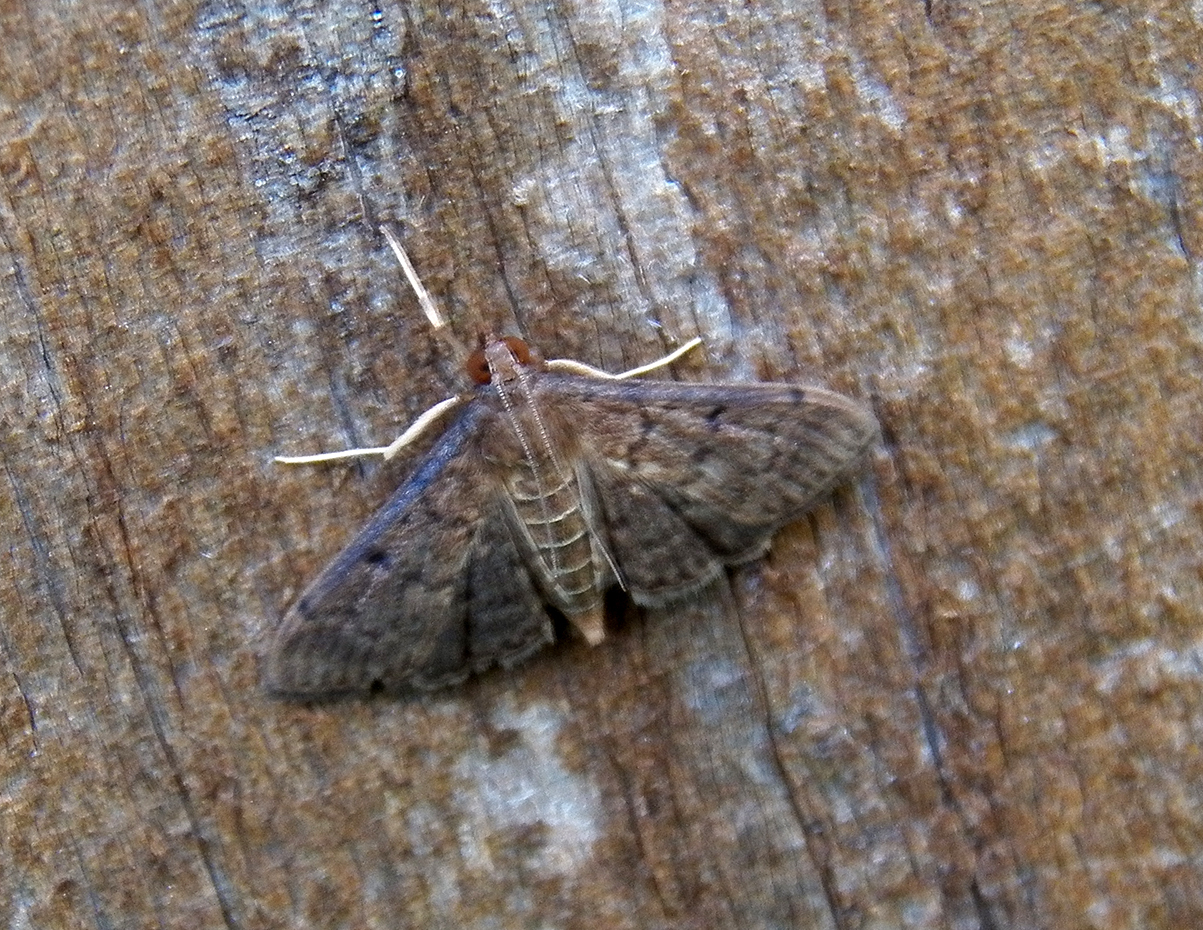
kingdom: Animalia
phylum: Arthropoda
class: Insecta
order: Lepidoptera
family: Crambidae
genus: Herpetogramma
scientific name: Herpetogramma phaeopteralis
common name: Dusky herpetogramma moth
